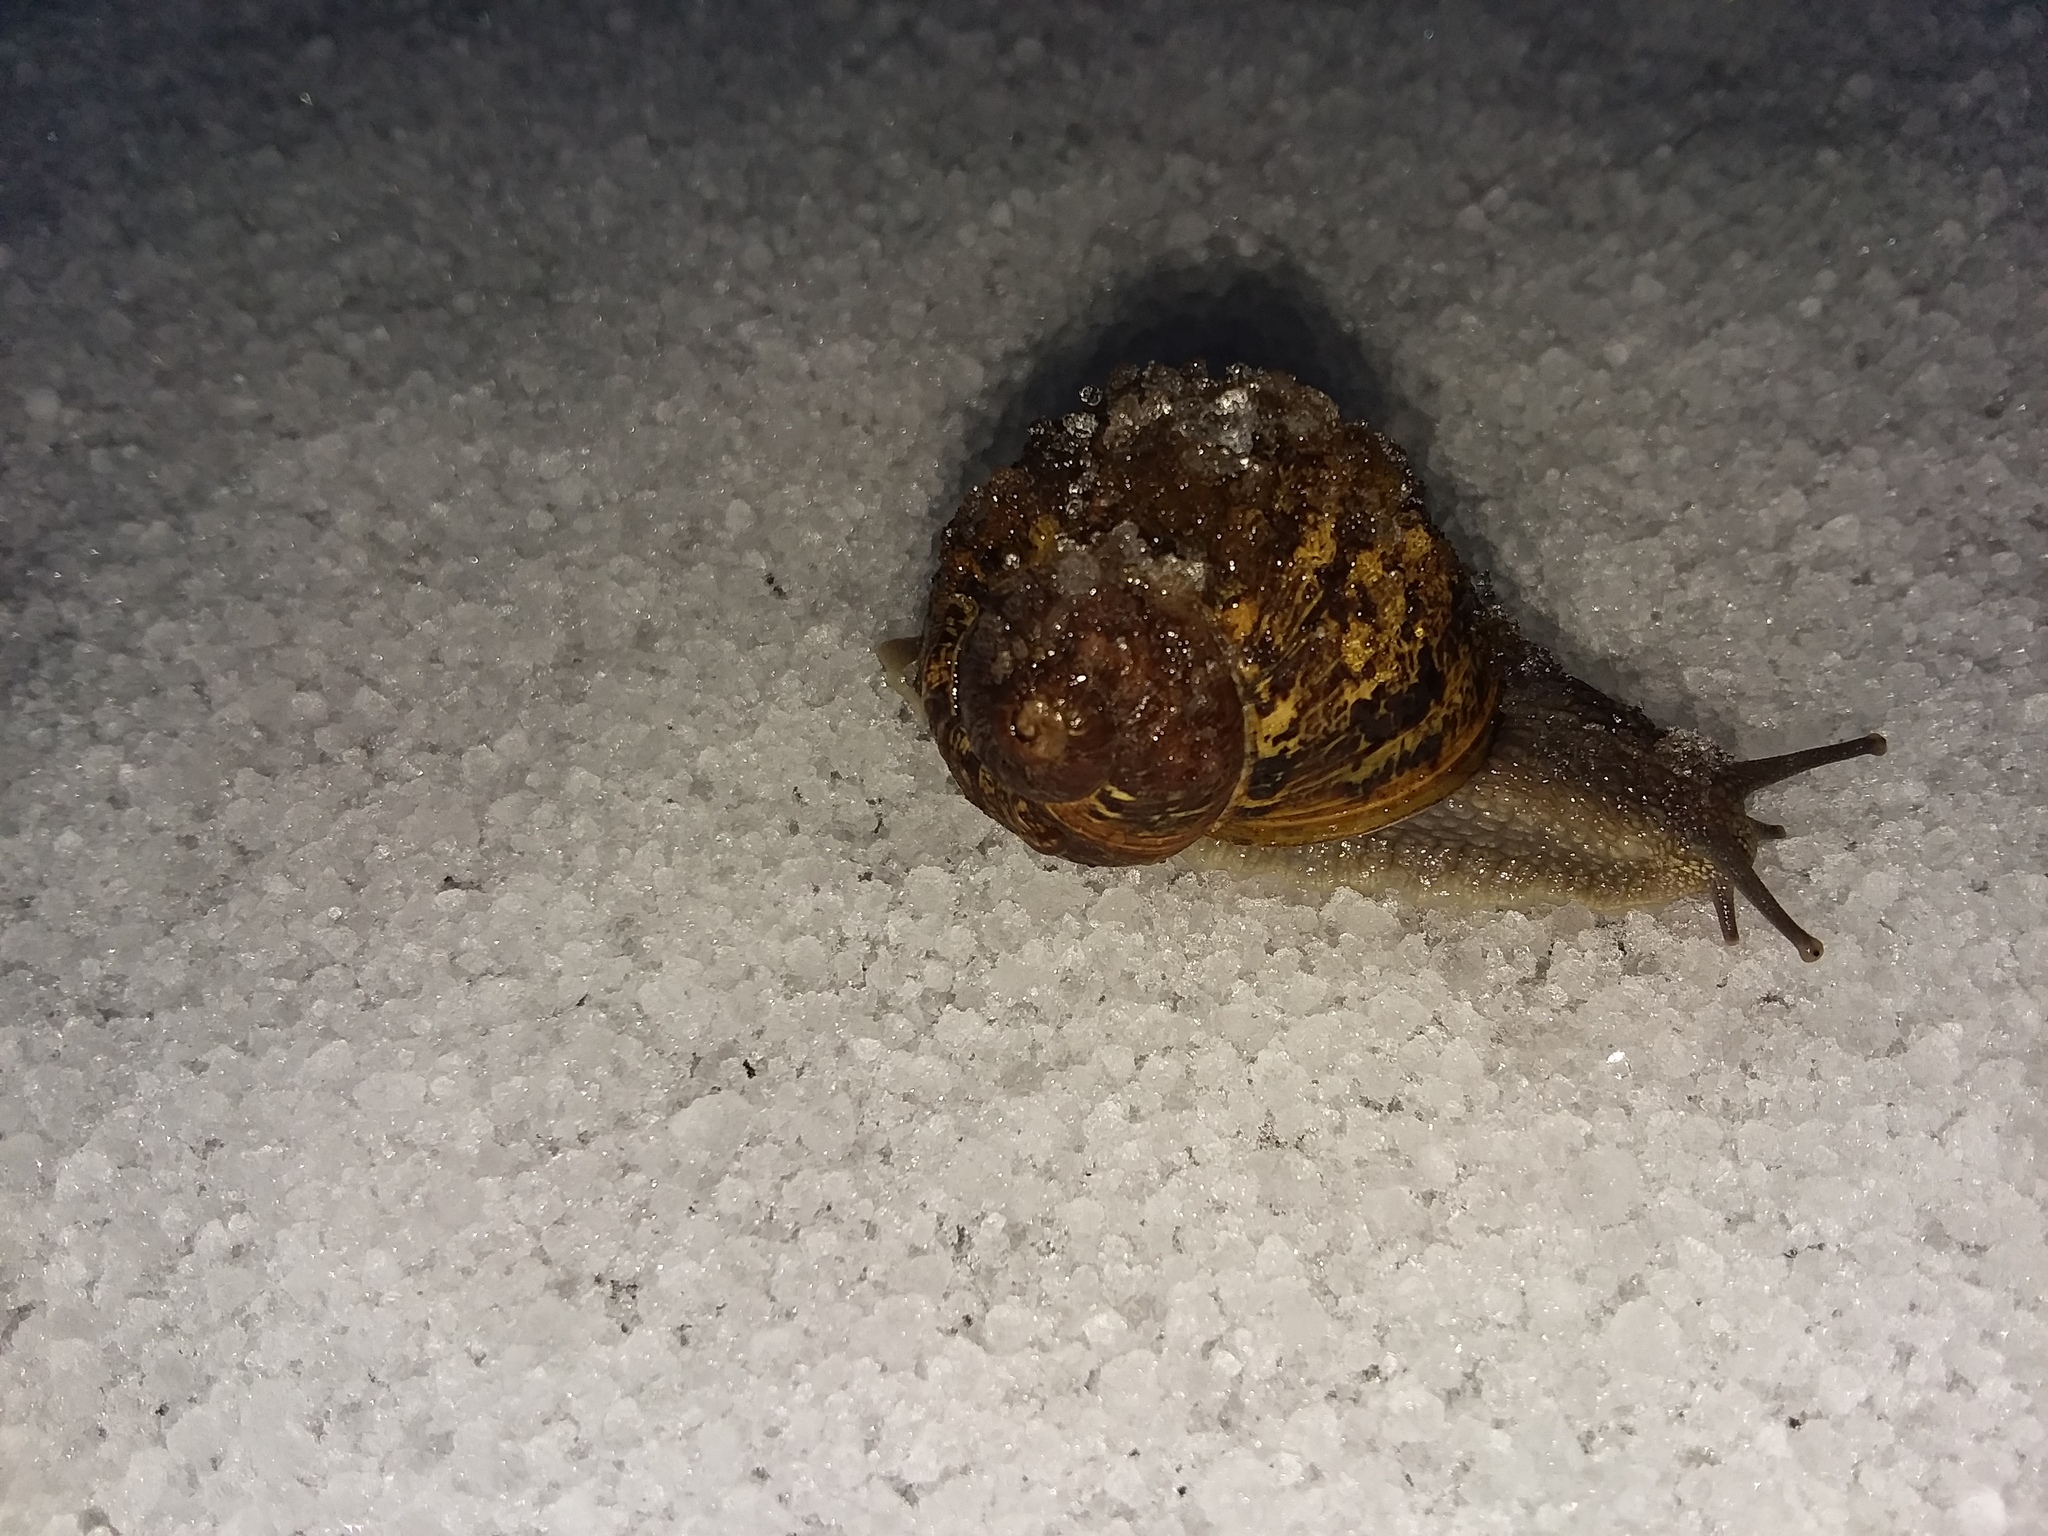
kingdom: Animalia
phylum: Mollusca
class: Gastropoda
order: Stylommatophora
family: Helicidae
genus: Cornu
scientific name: Cornu aspersum
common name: Brown garden snail
